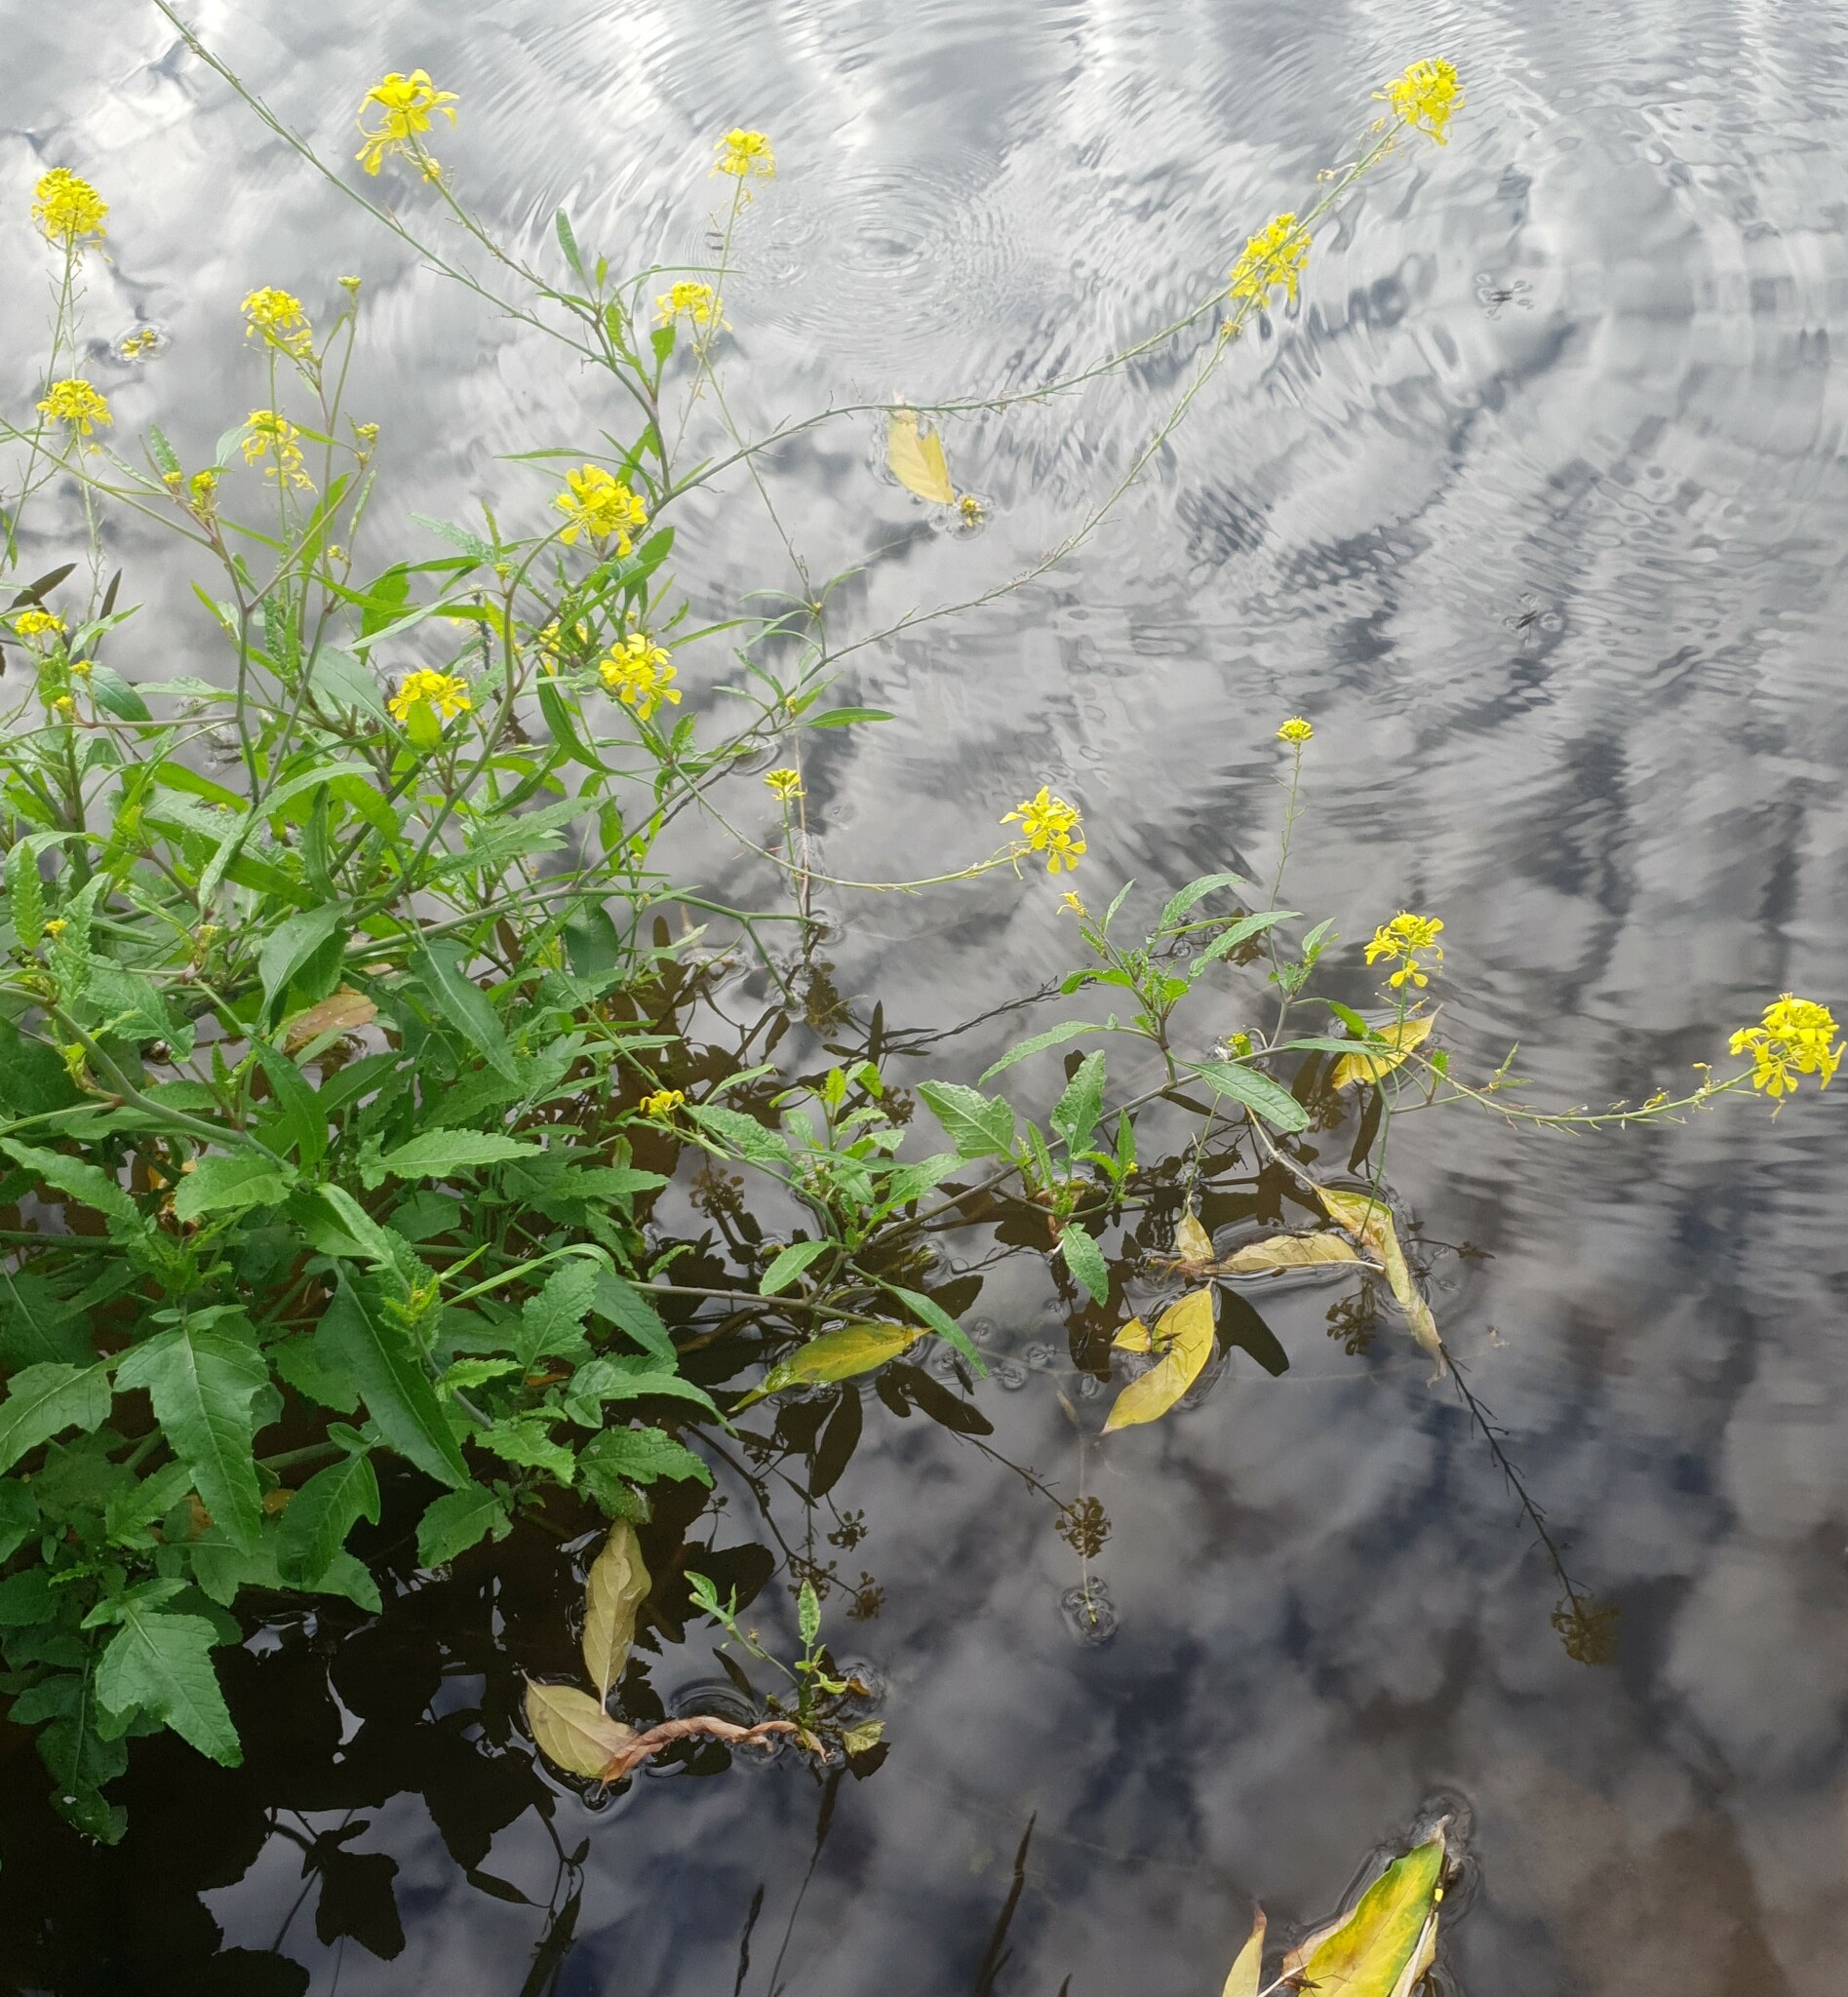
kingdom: Plantae
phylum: Tracheophyta
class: Magnoliopsida
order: Brassicales
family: Brassicaceae
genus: Rorippa
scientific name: Rorippa amphibia
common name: Great yellow-cress
